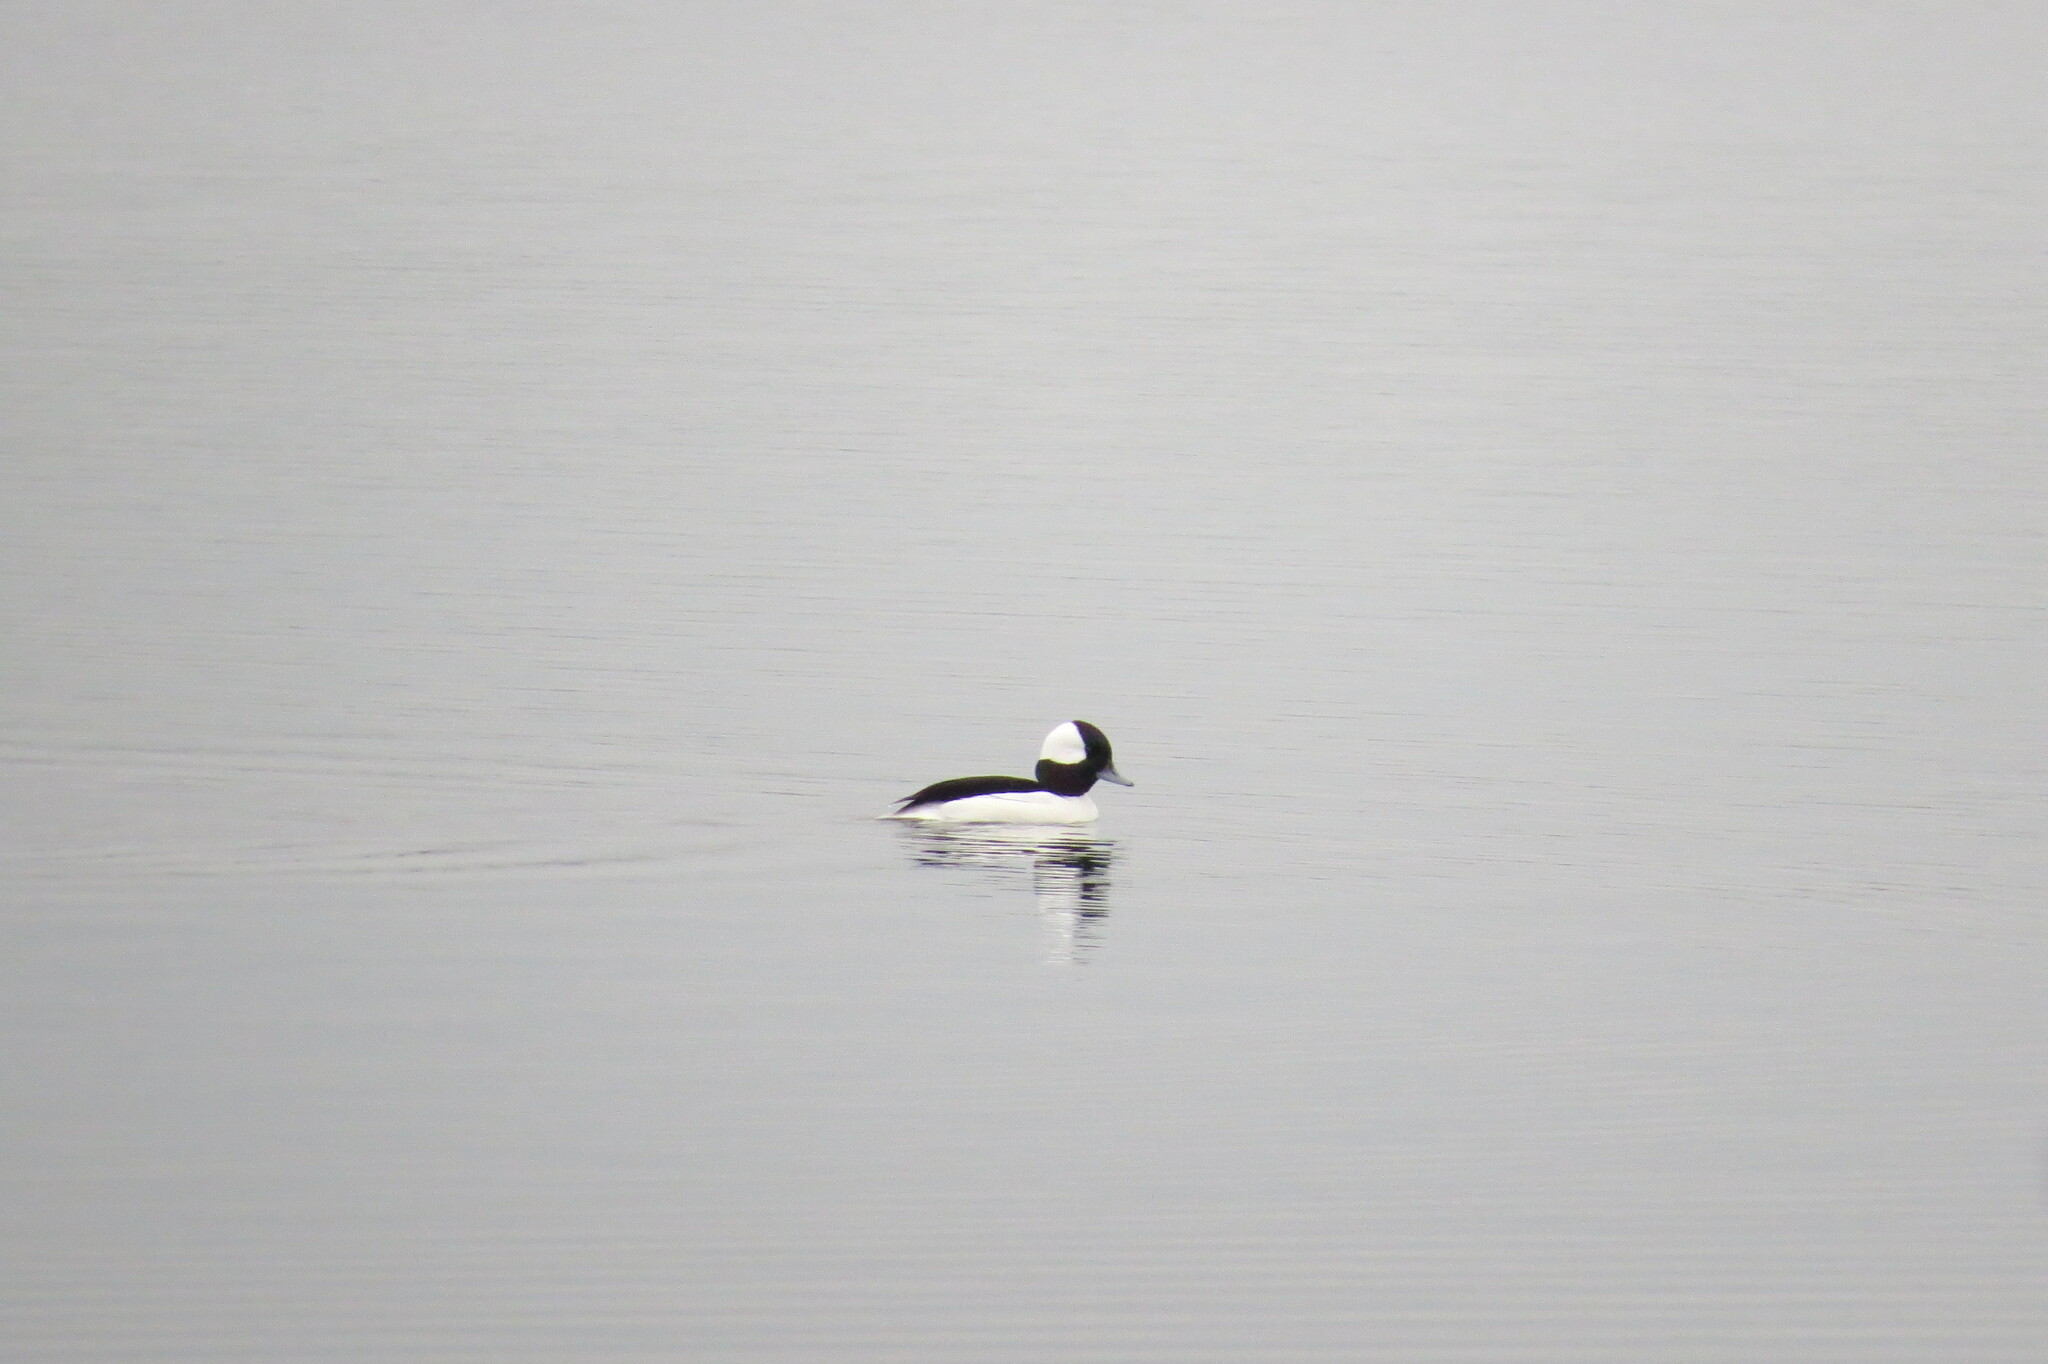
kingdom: Animalia
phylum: Chordata
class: Aves
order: Anseriformes
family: Anatidae
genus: Bucephala
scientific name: Bucephala albeola
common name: Bufflehead
